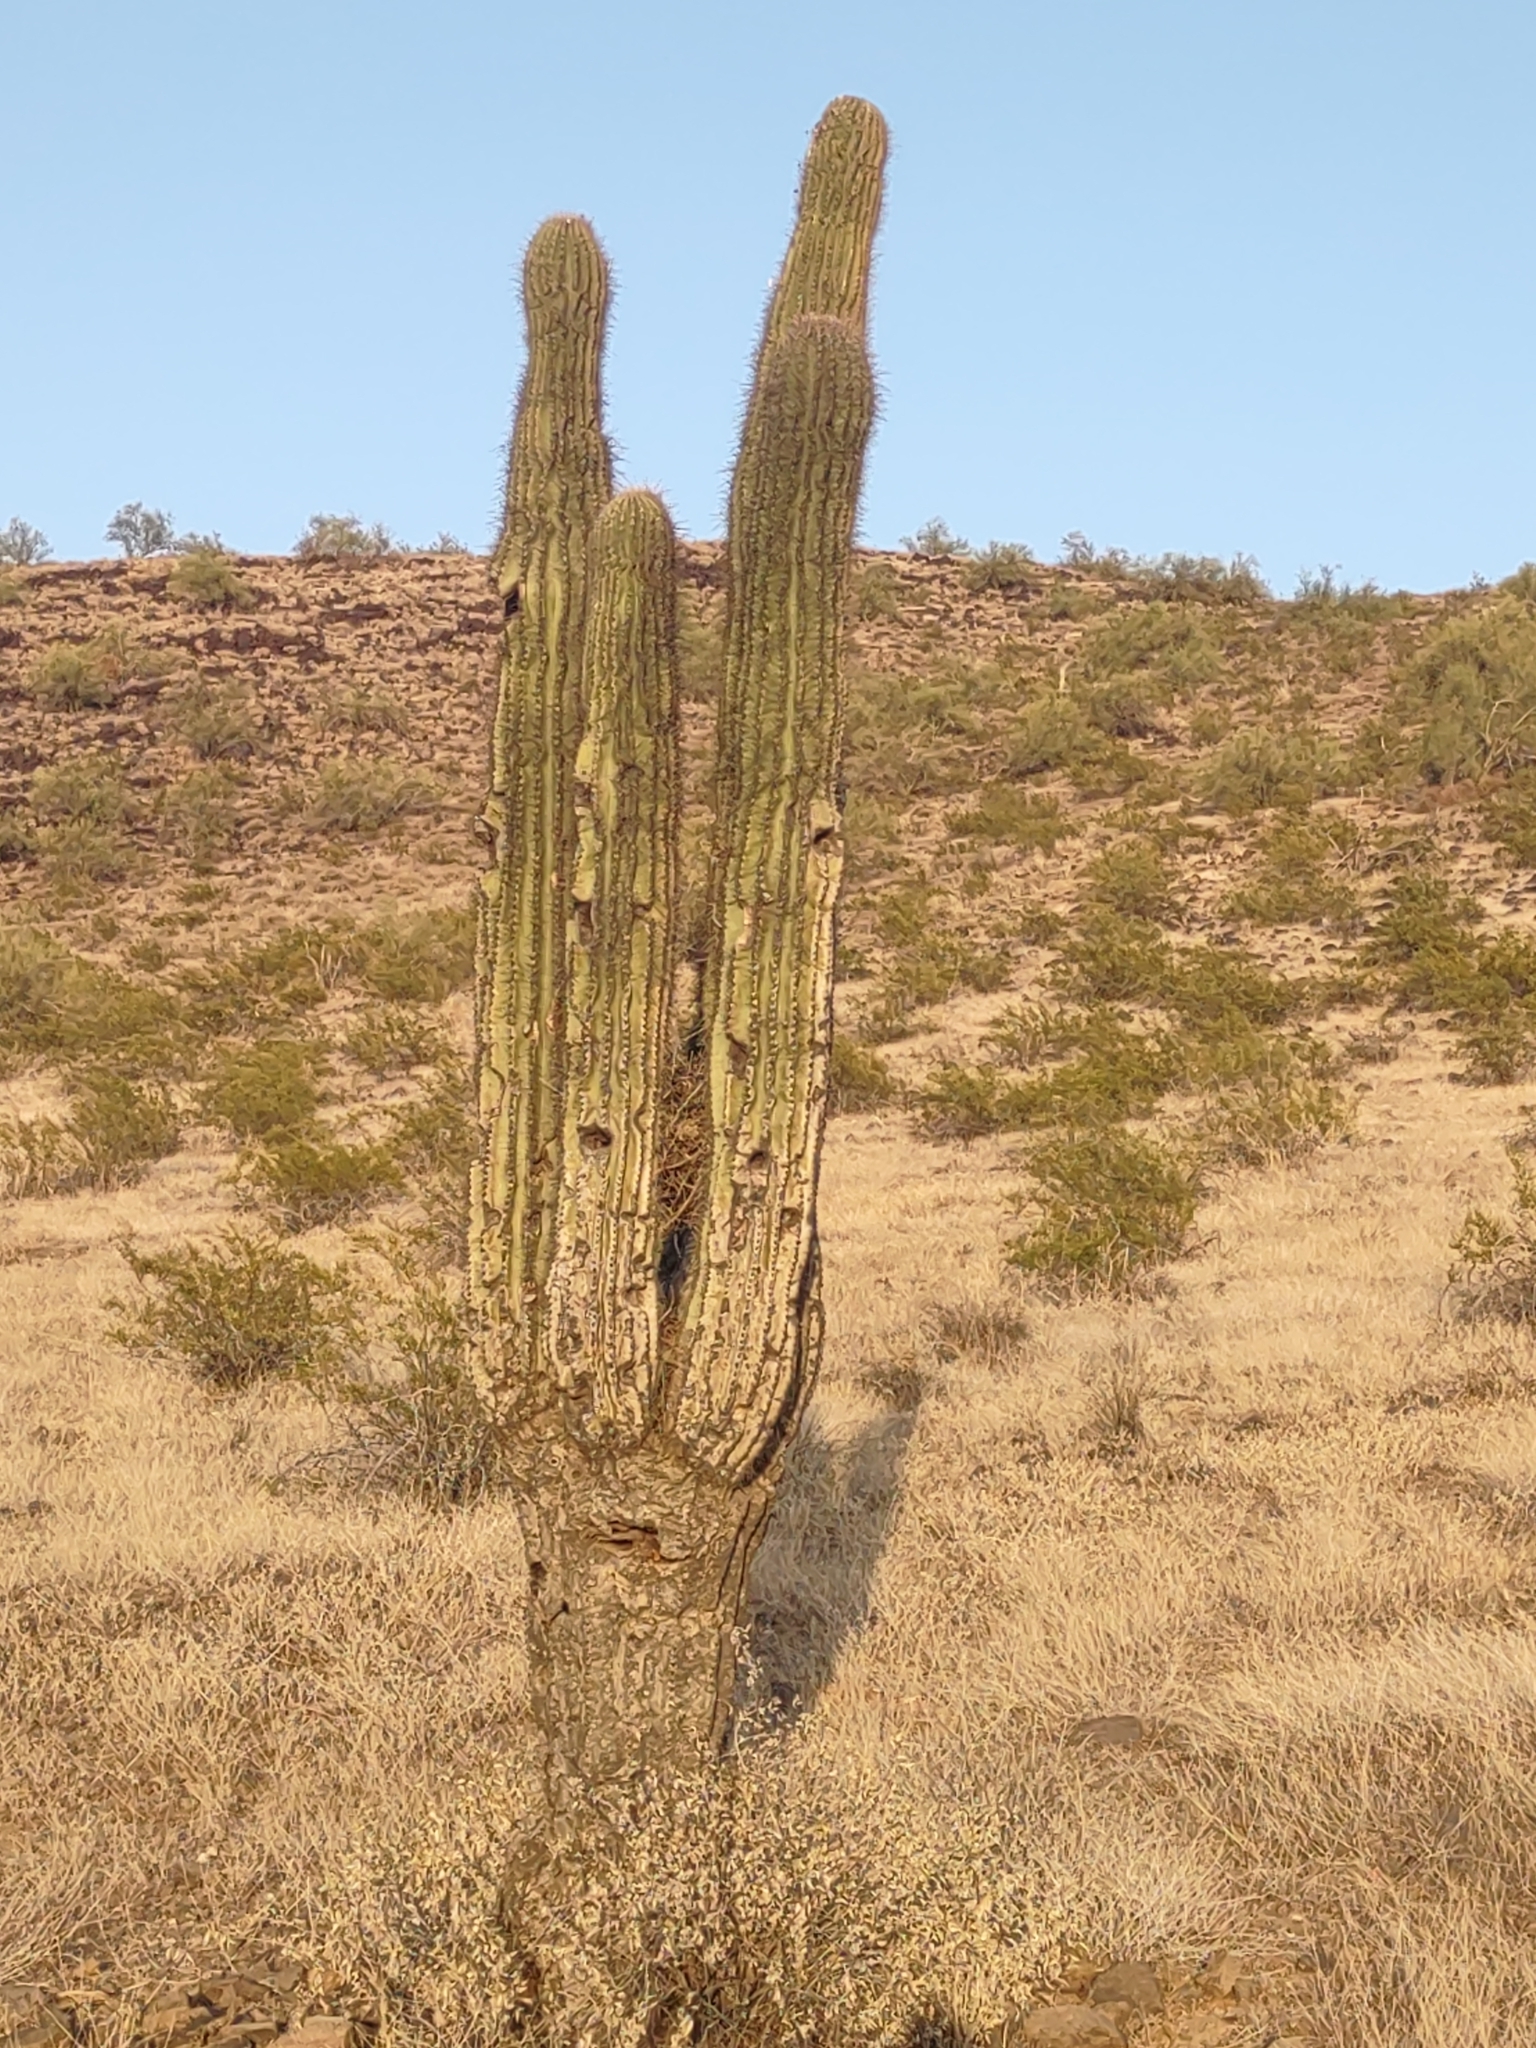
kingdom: Plantae
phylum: Tracheophyta
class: Magnoliopsida
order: Caryophyllales
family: Cactaceae
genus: Carnegiea
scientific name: Carnegiea gigantea
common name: Saguaro
